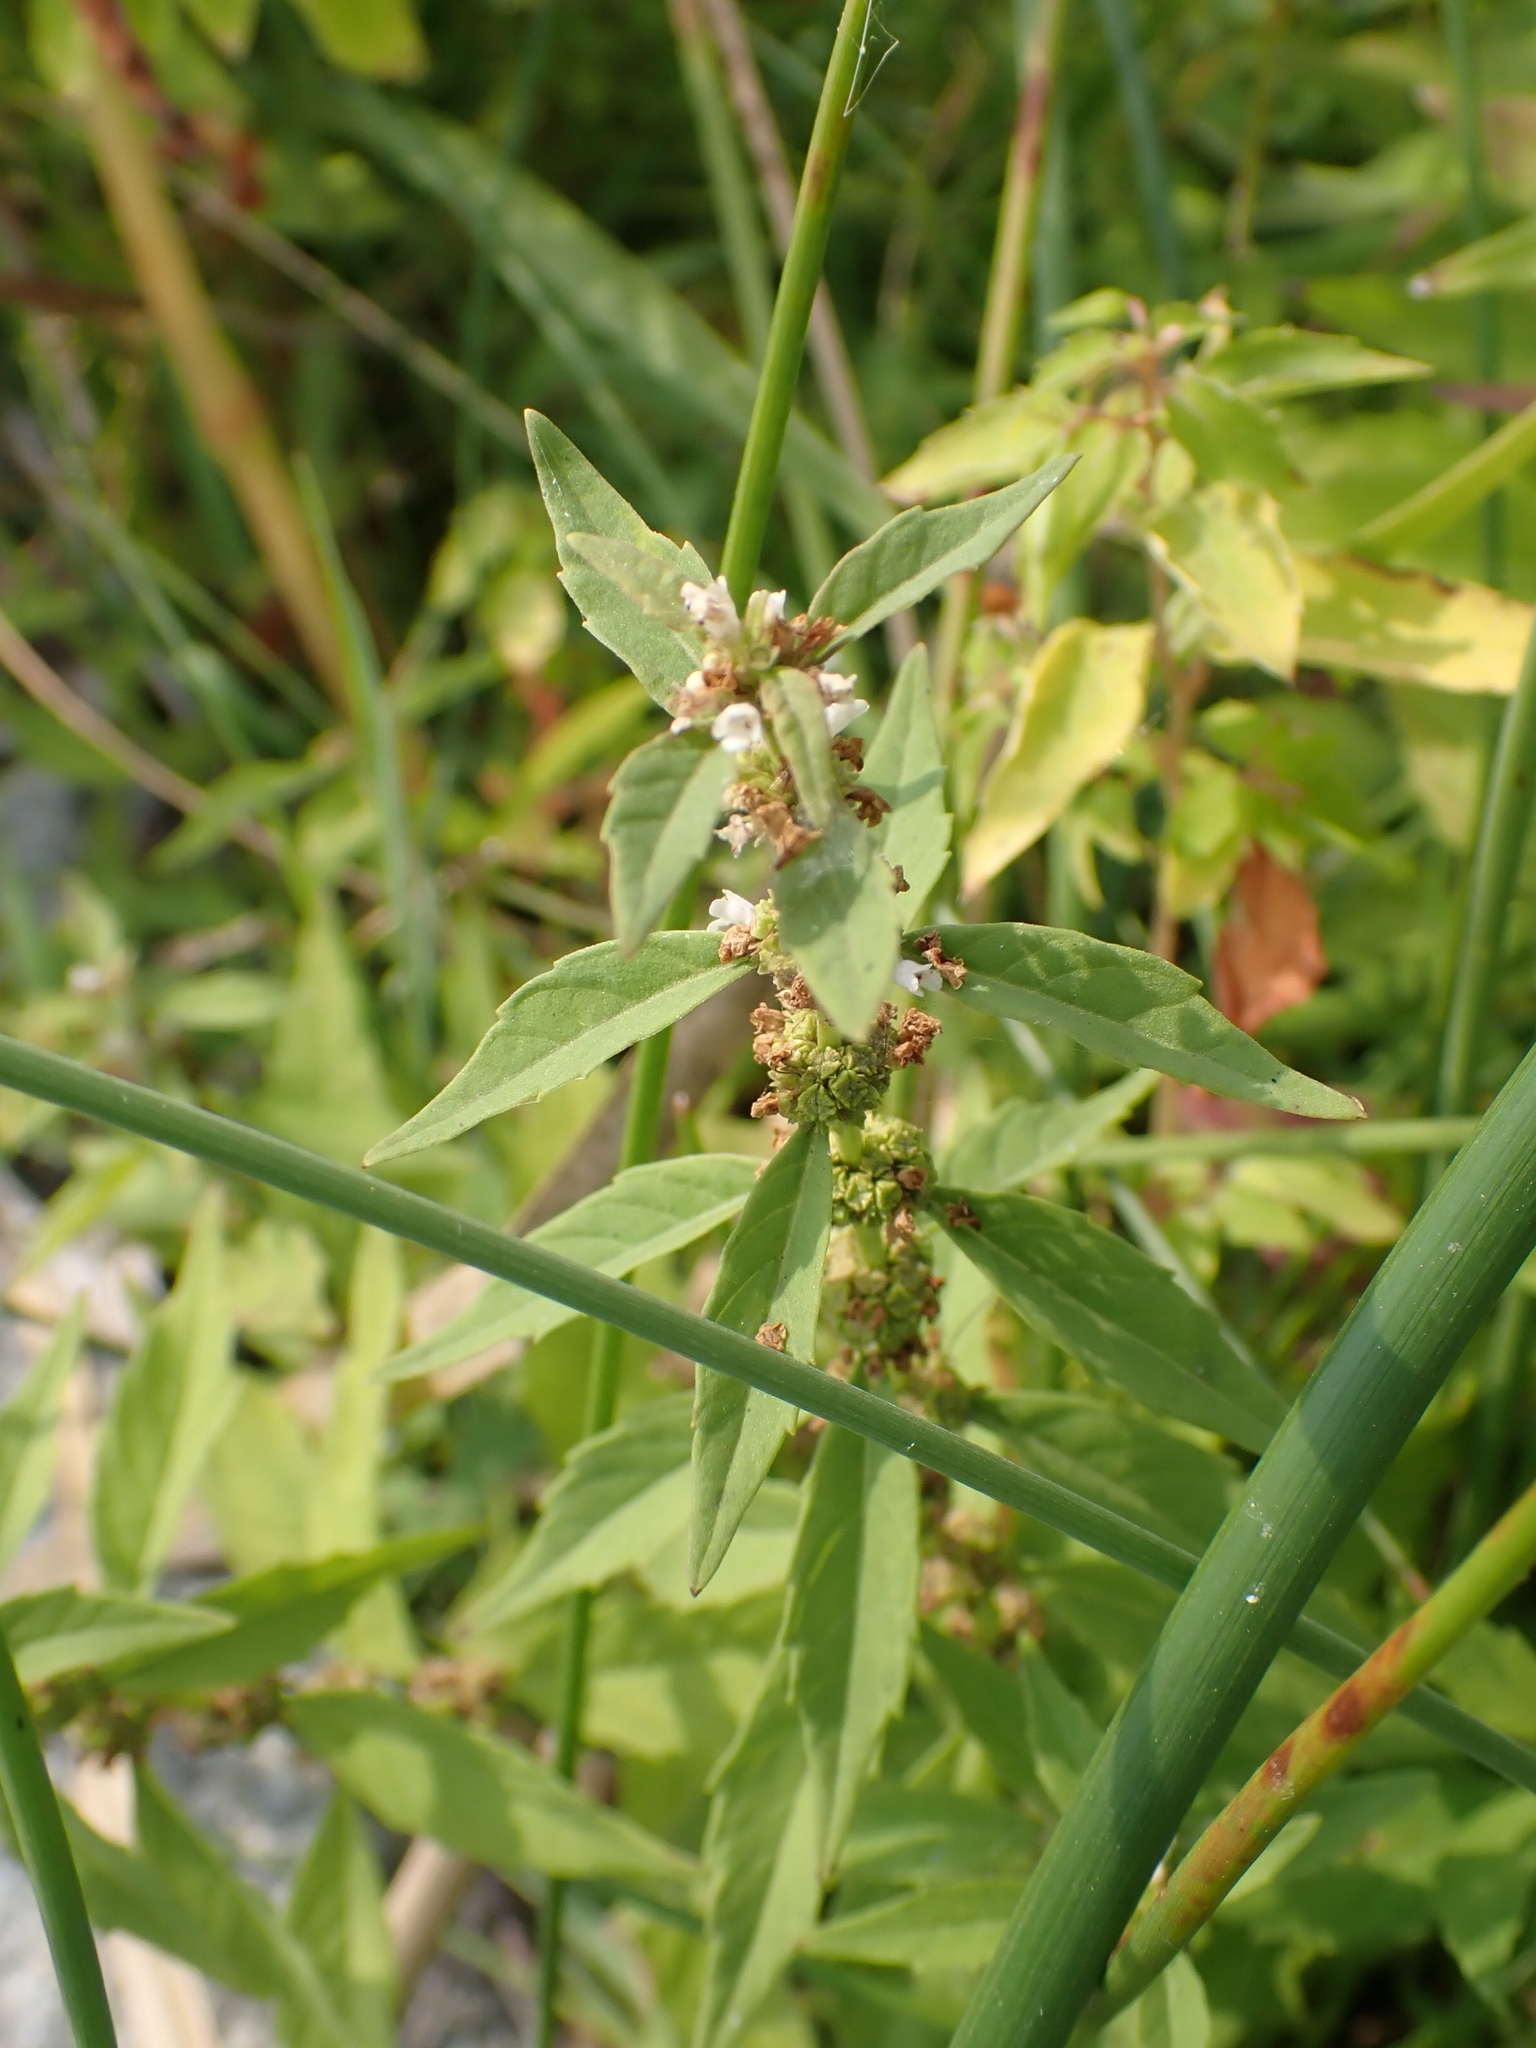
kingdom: Plantae
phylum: Tracheophyta
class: Magnoliopsida
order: Lamiales
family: Lamiaceae
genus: Lycopus
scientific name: Lycopus uniflorus
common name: Northern bugleweed
